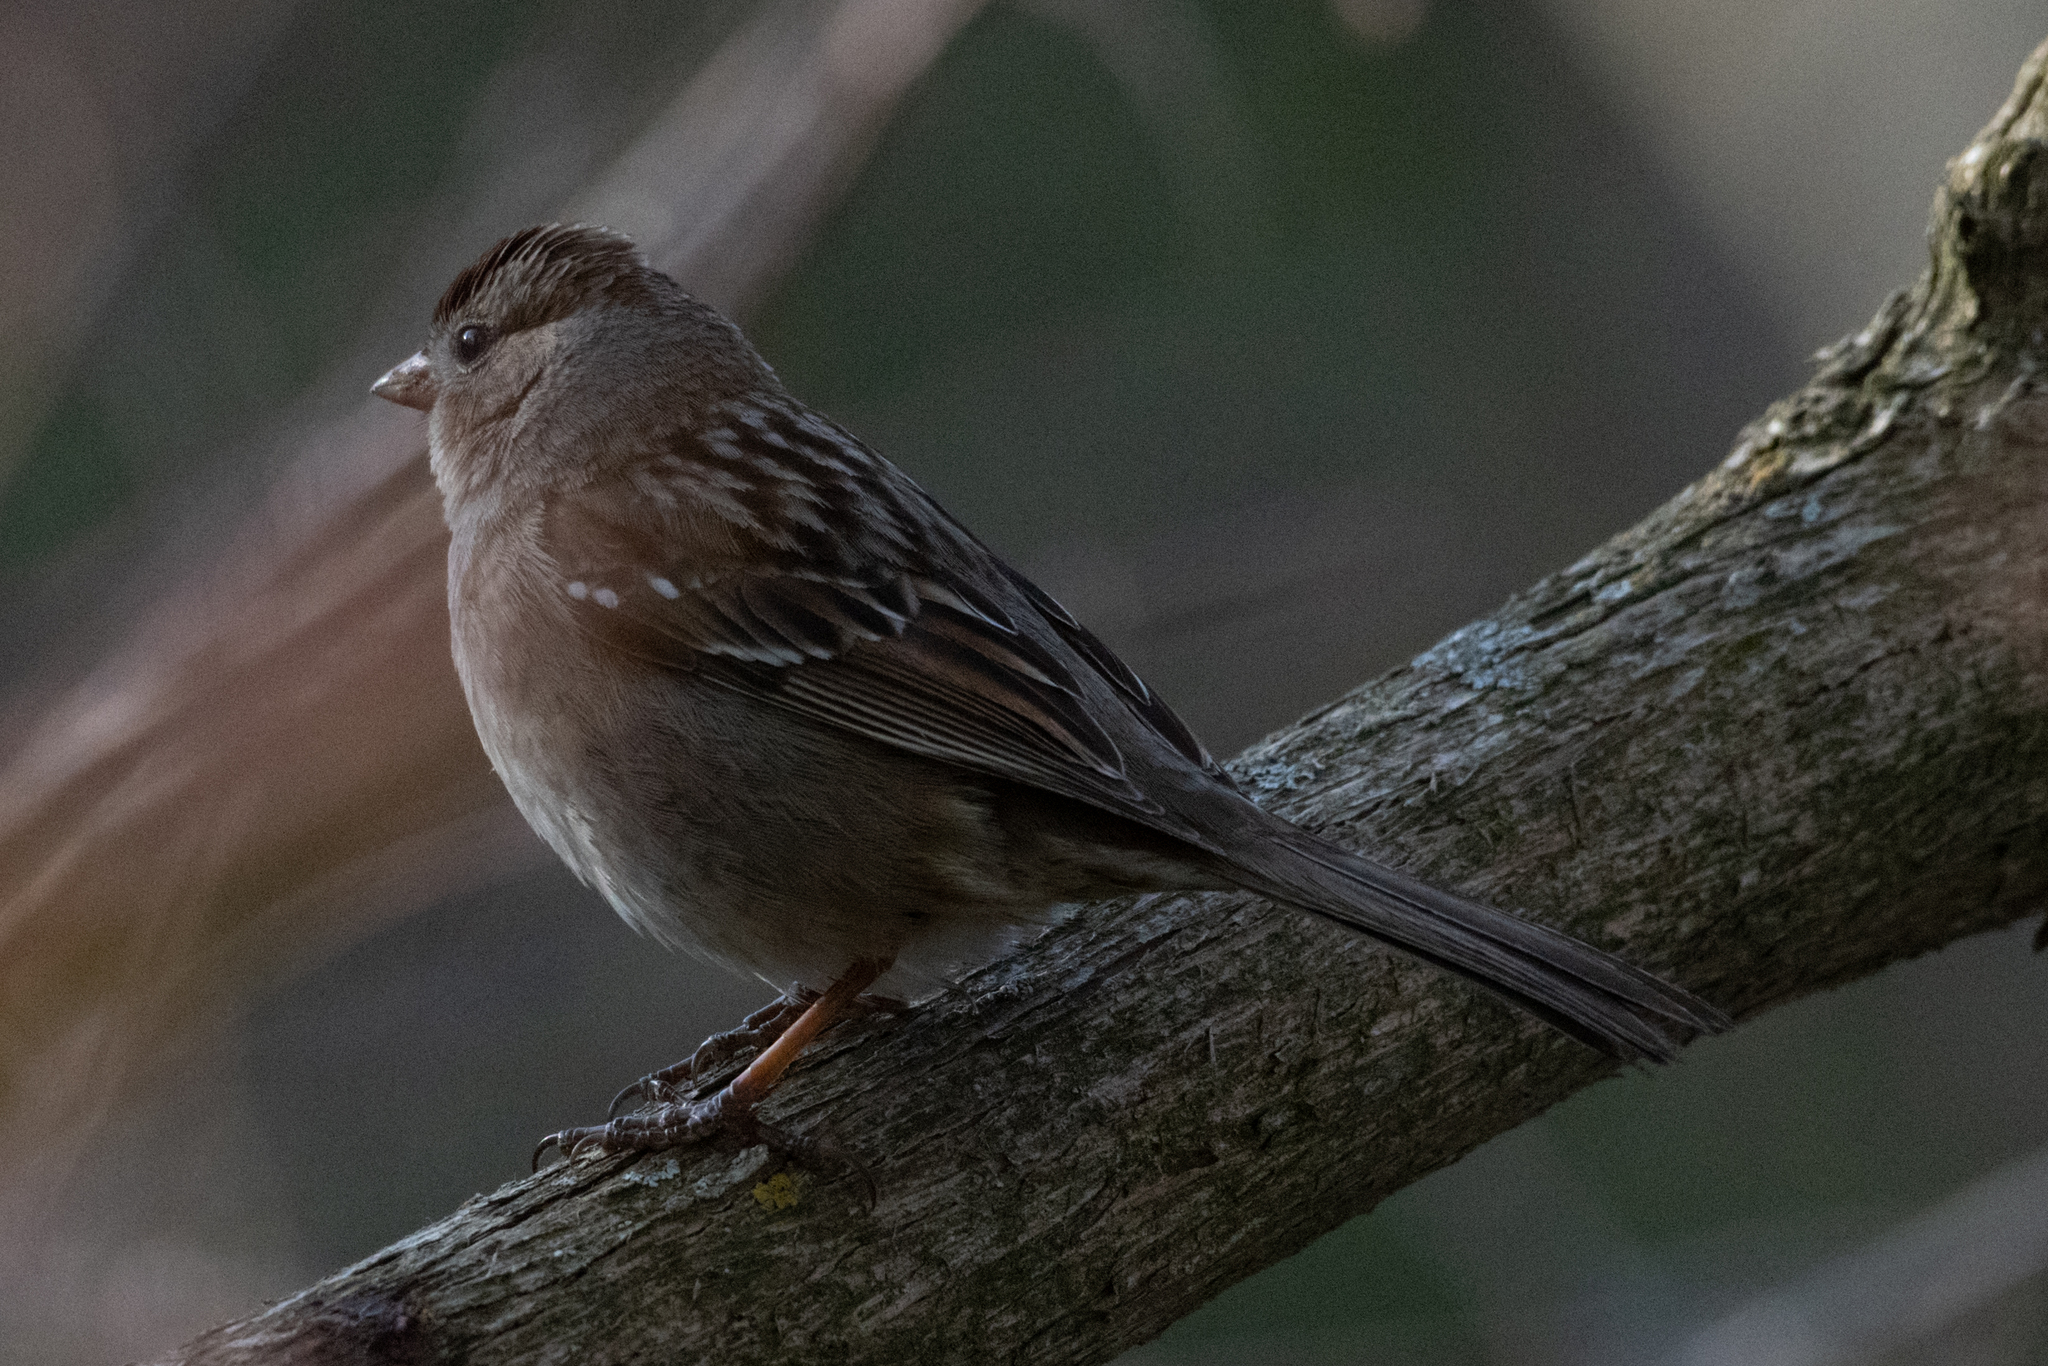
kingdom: Animalia
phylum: Chordata
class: Aves
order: Passeriformes
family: Passerellidae
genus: Zonotrichia
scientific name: Zonotrichia leucophrys
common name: White-crowned sparrow
